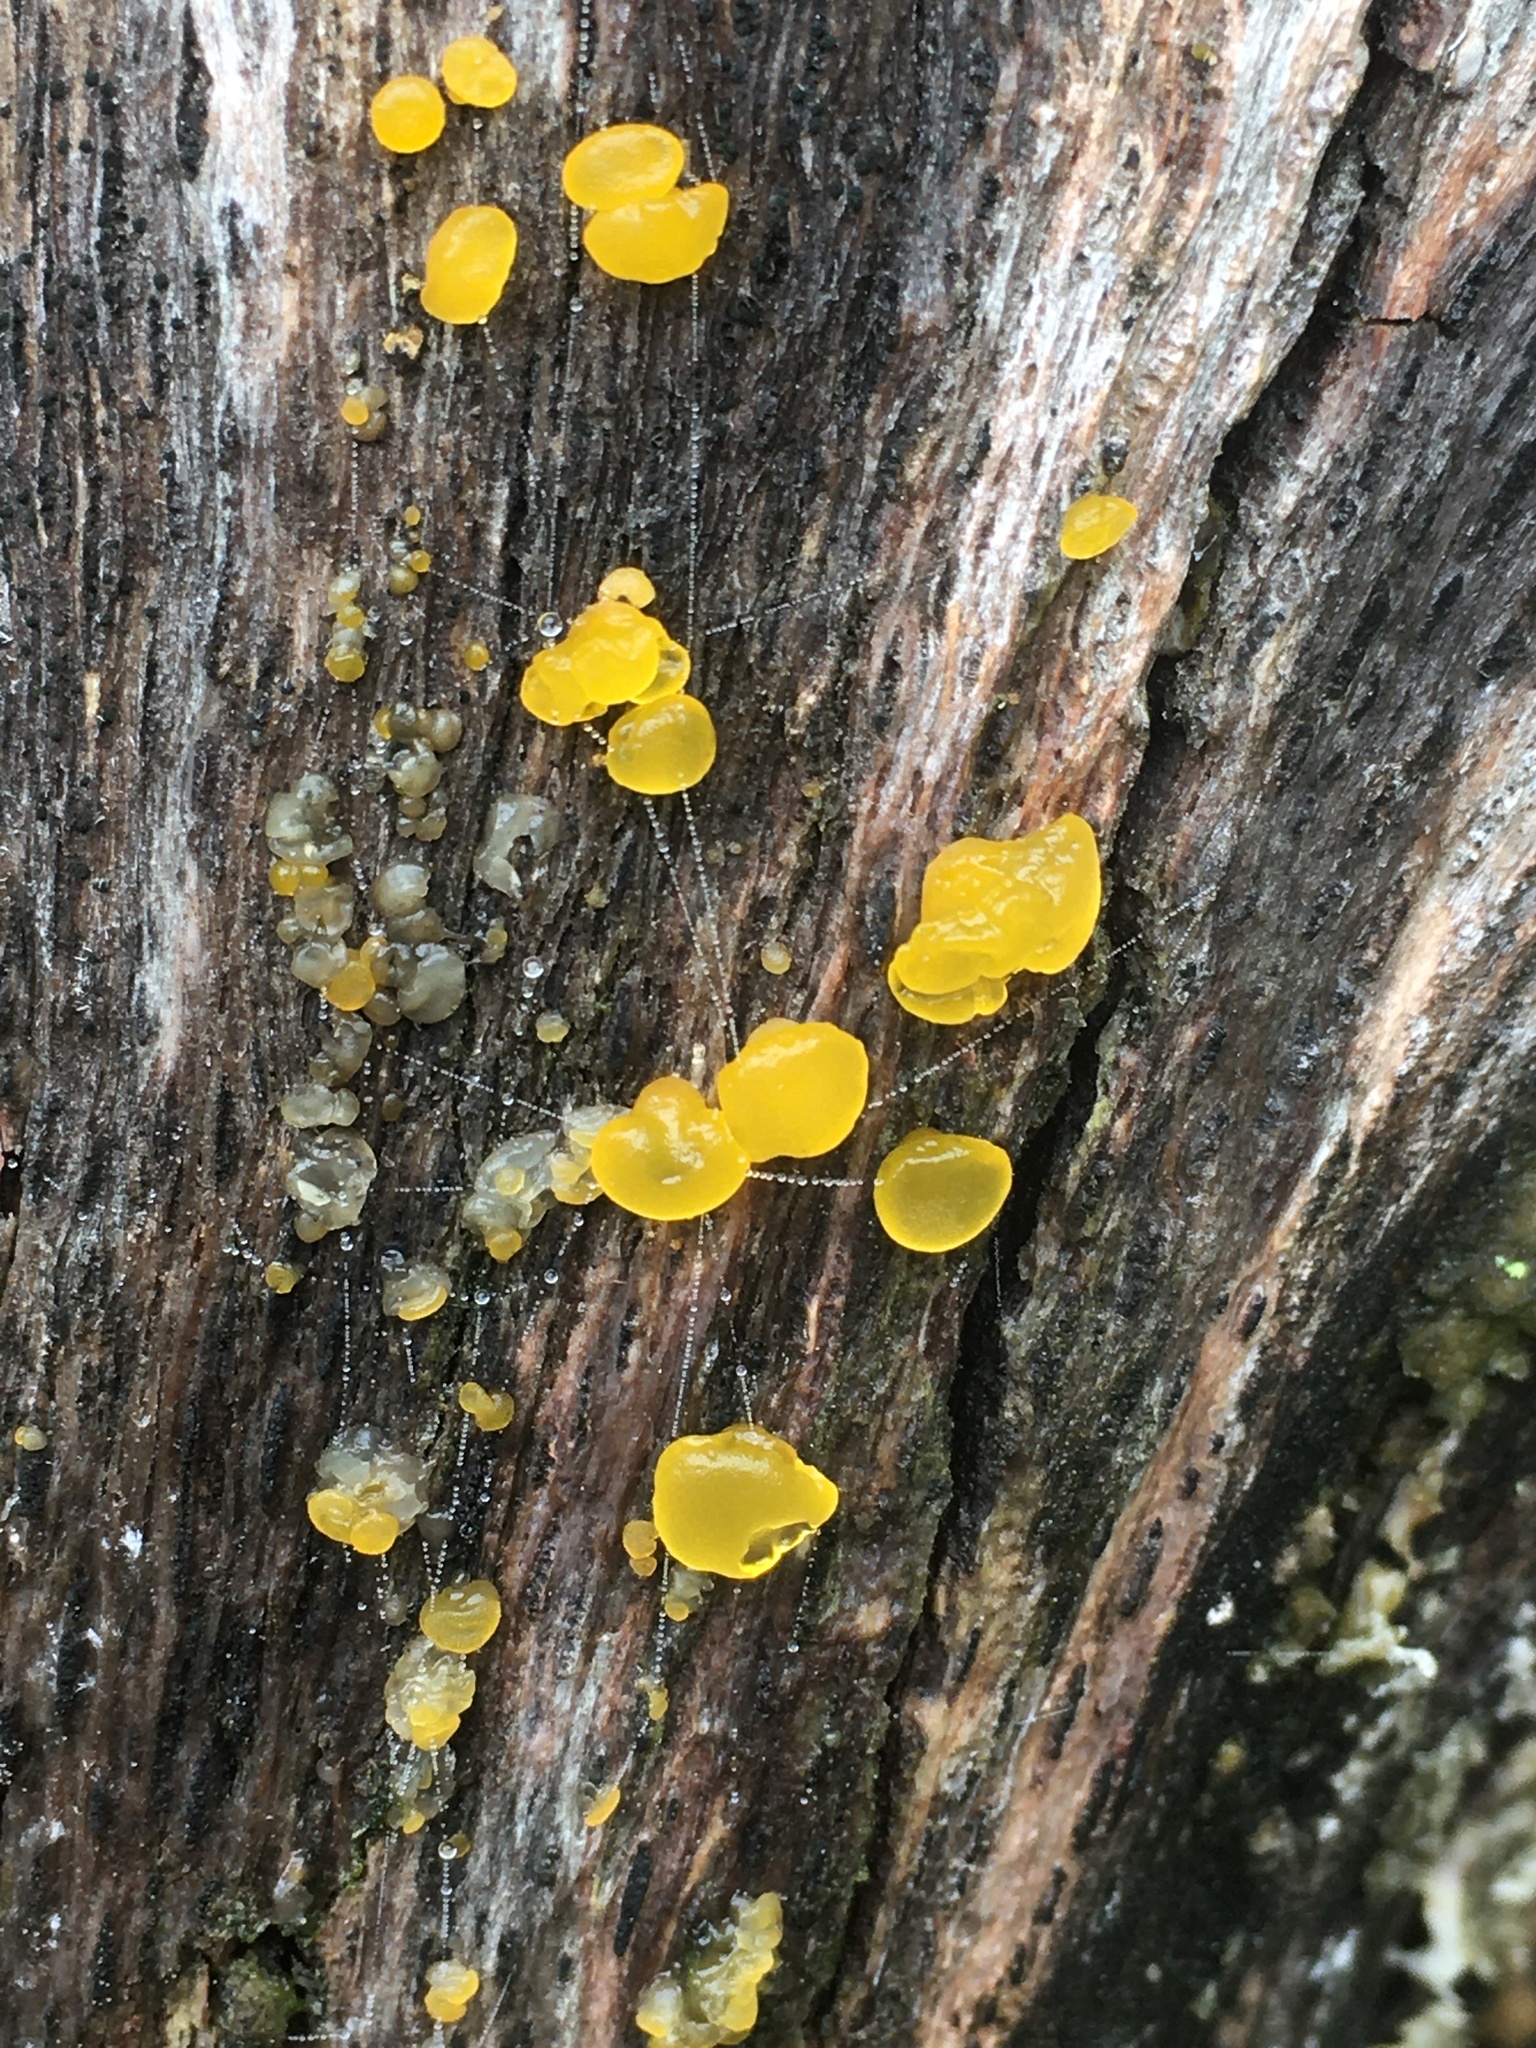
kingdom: Fungi
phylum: Basidiomycota
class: Dacrymycetes
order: Dacrymycetales
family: Dacrymycetaceae
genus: Dacrymyces
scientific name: Dacrymyces stillatus
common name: Common jelly spot
